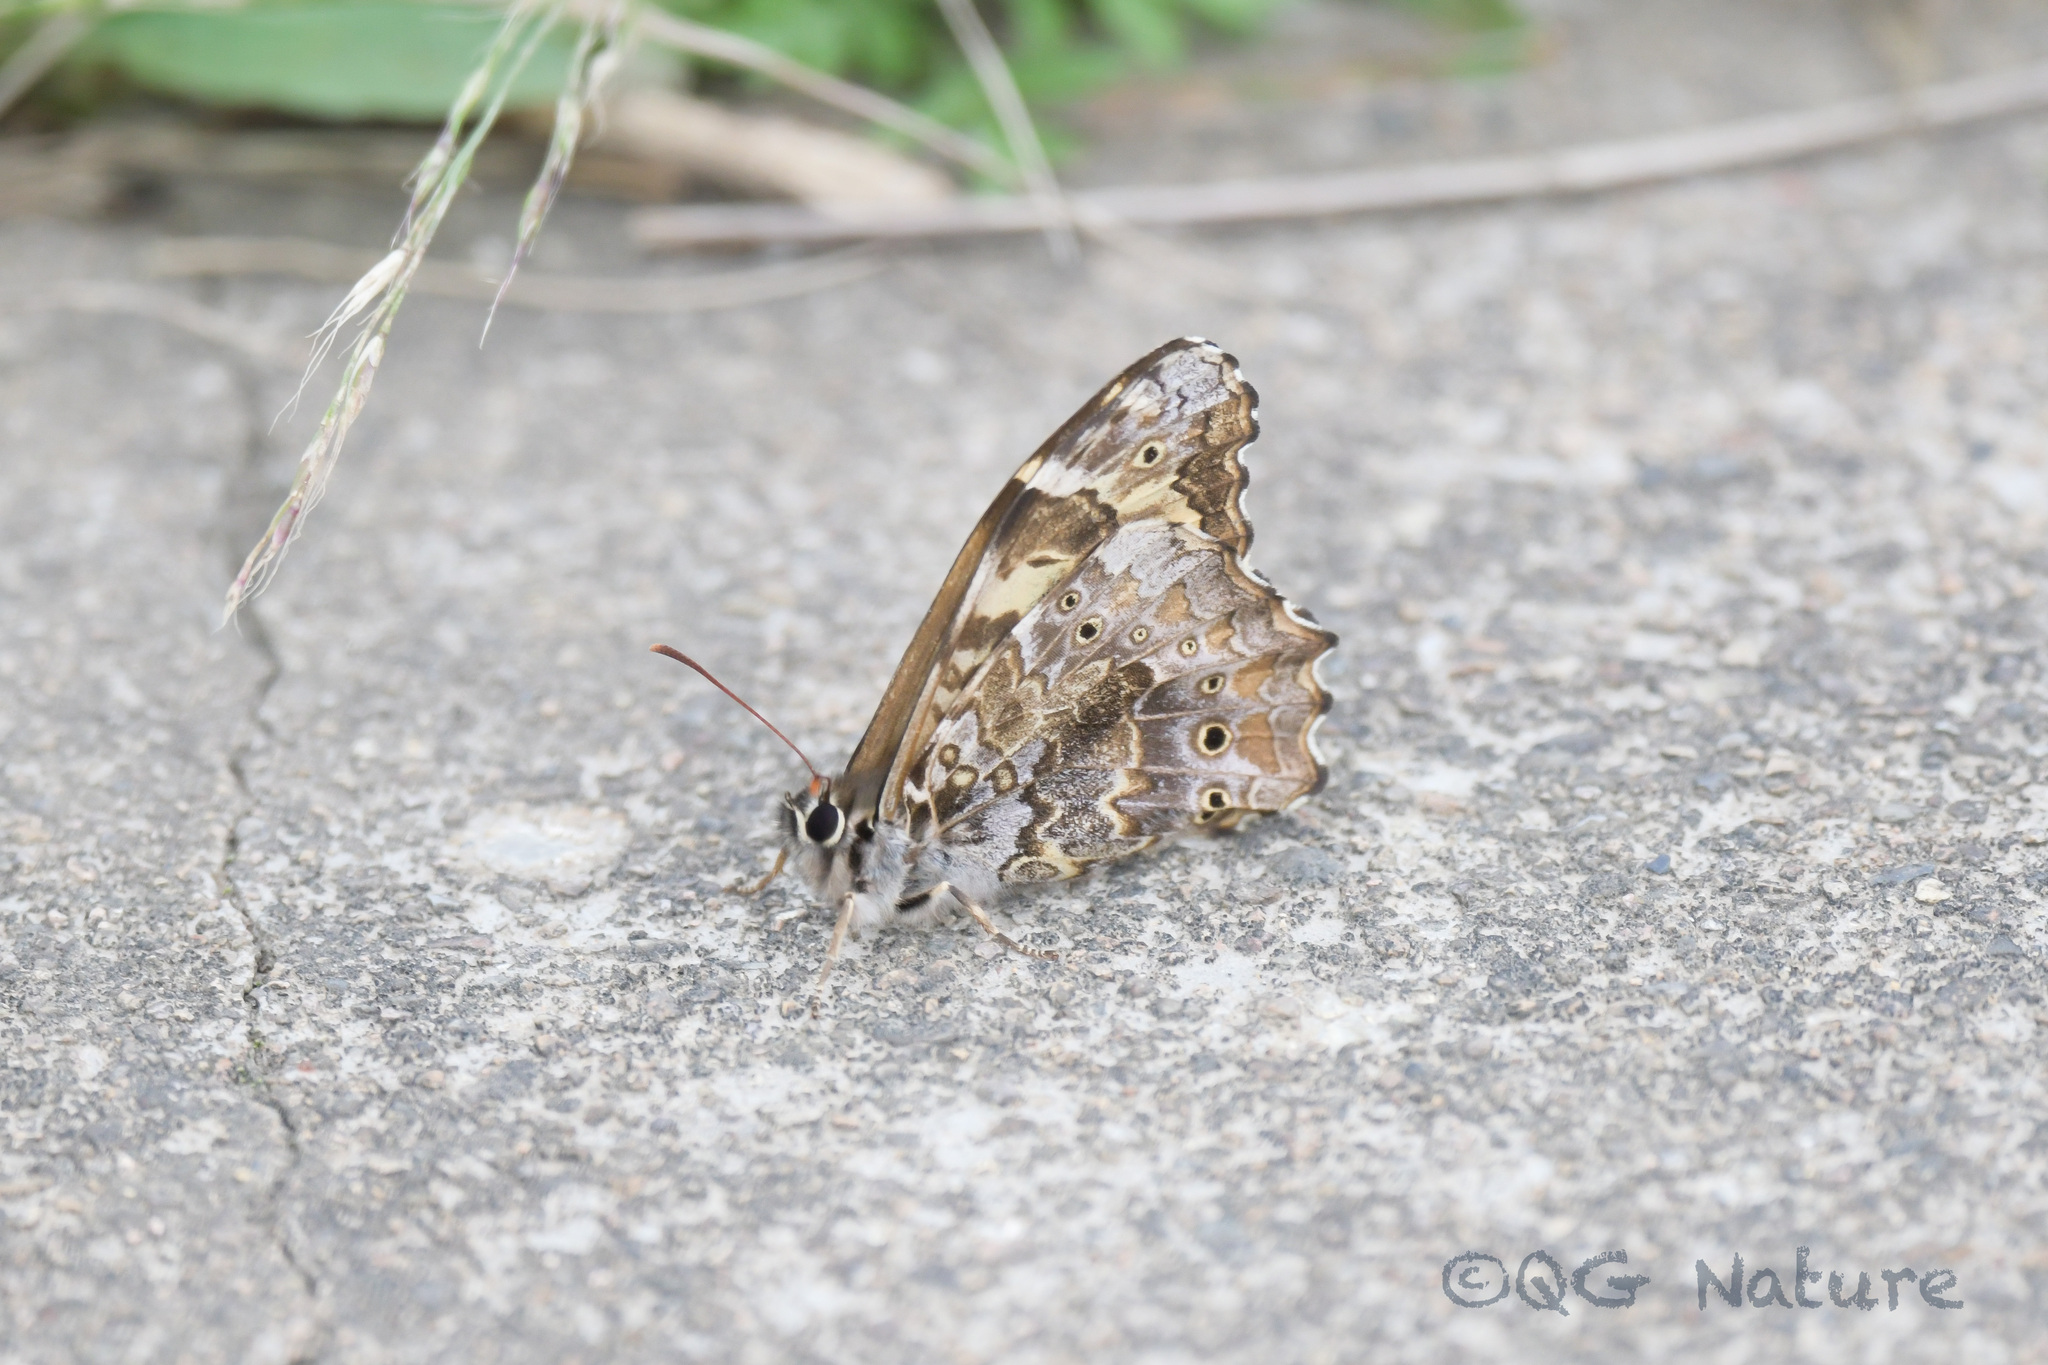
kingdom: Animalia
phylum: Arthropoda
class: Insecta
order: Lepidoptera
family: Nymphalidae
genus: Neope
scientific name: Neope bremeri
